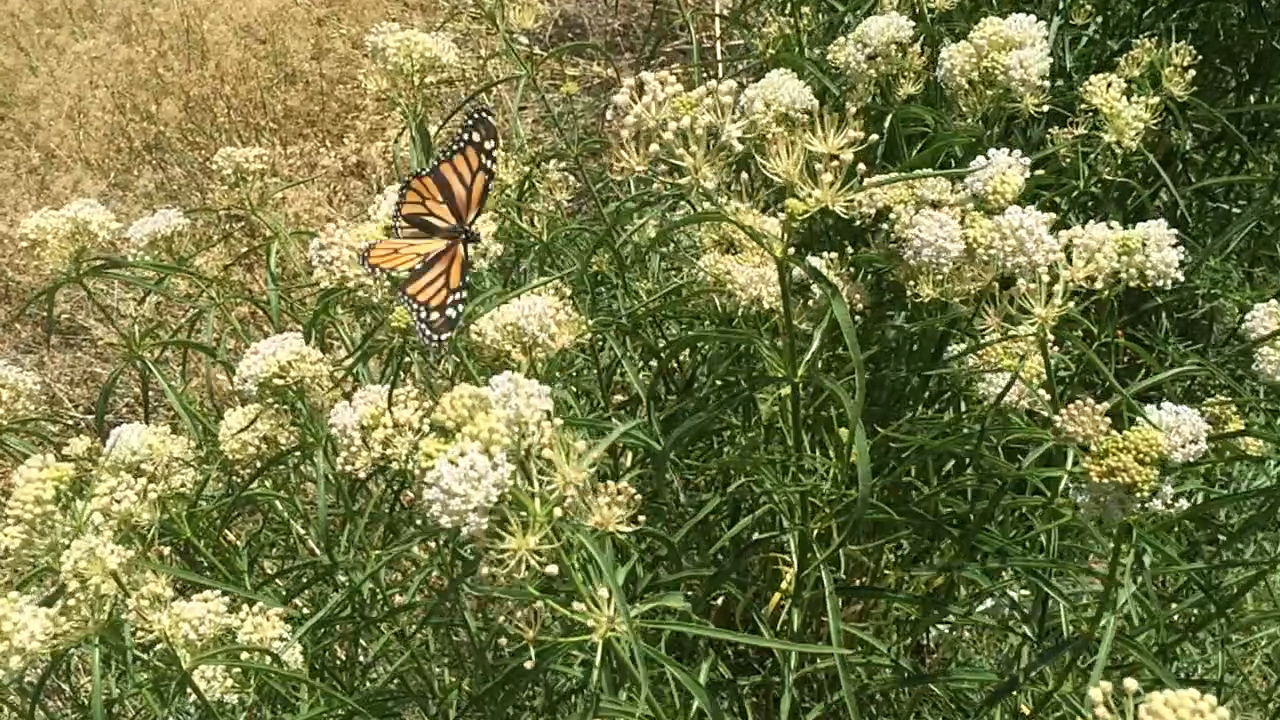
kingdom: Animalia
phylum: Arthropoda
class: Insecta
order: Lepidoptera
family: Nymphalidae
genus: Danaus
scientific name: Danaus plexippus
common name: Monarch
